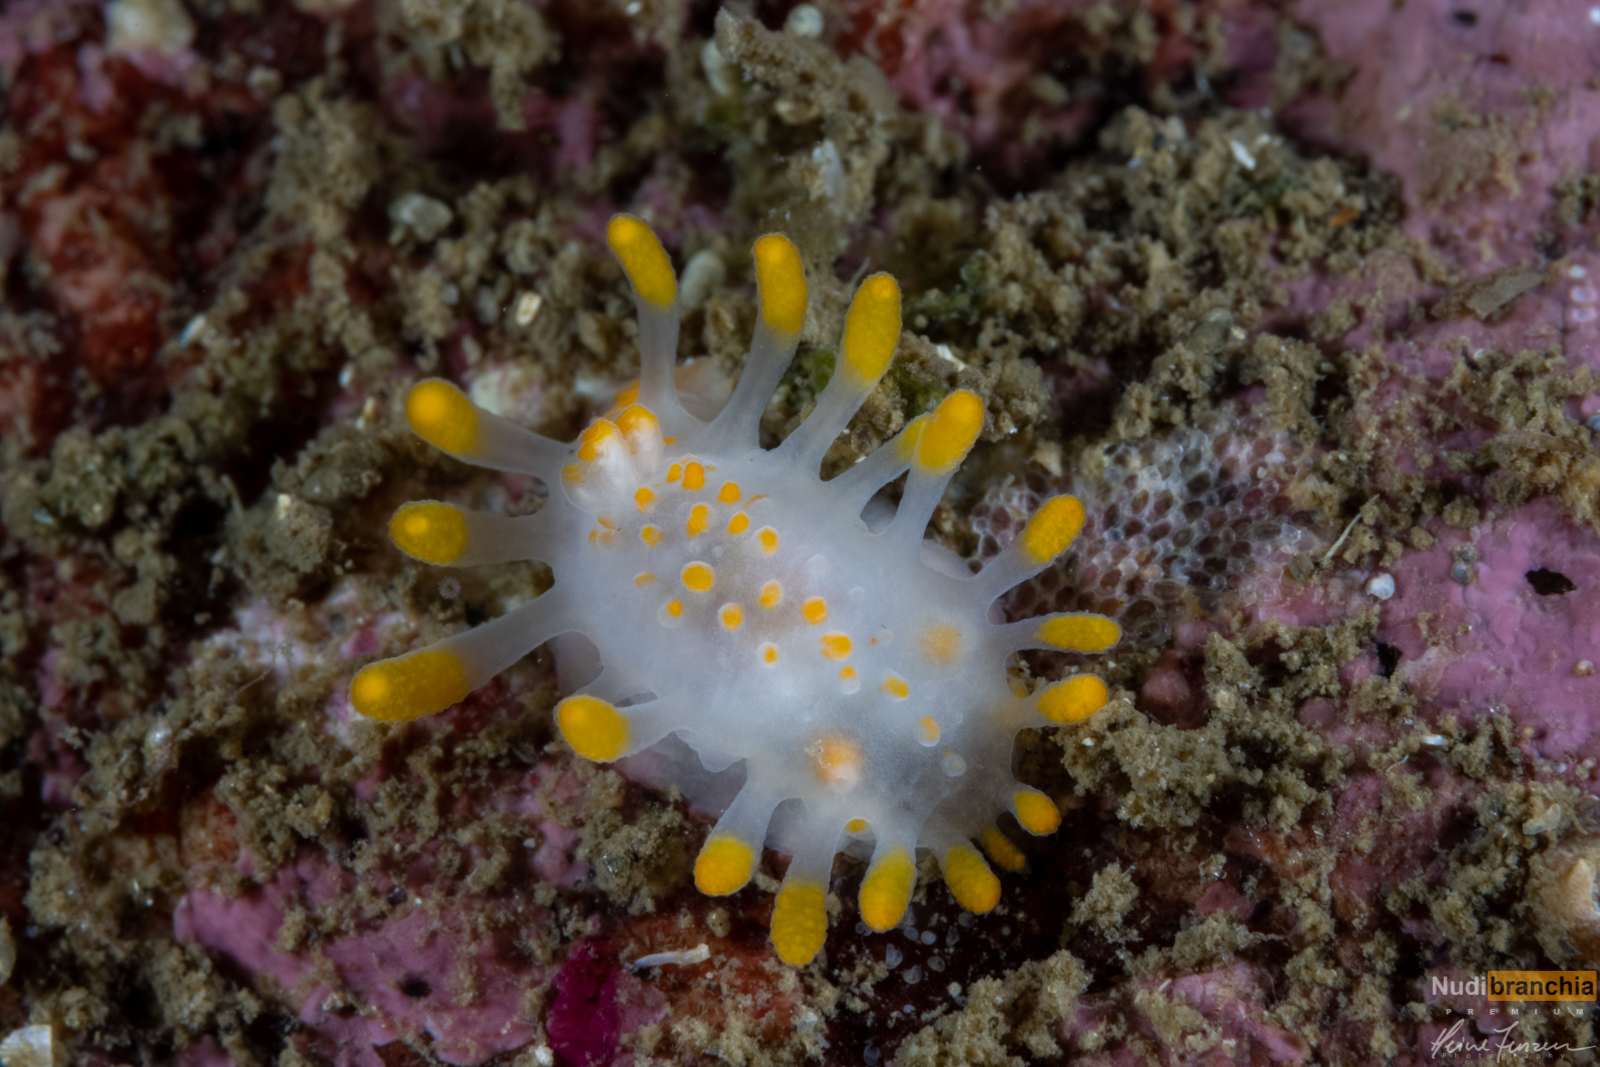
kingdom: Animalia
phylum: Mollusca
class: Gastropoda
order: Nudibranchia
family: Polyceridae
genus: Limacia
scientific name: Limacia clavigera
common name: Orange-clubbed sea slug
